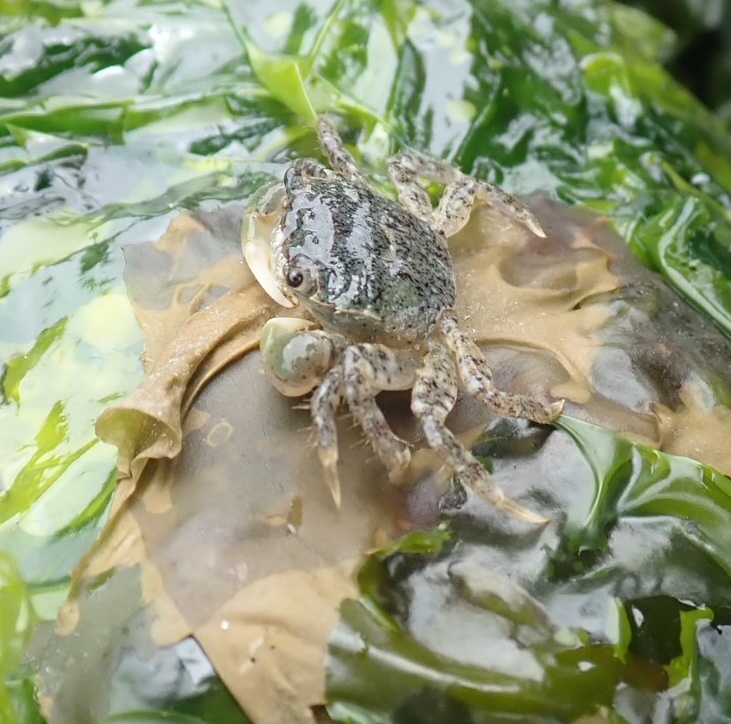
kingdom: Animalia
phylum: Arthropoda
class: Malacostraca
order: Decapoda
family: Varunidae
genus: Hemigrapsus
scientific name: Hemigrapsus oregonensis
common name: Yellow shore crab
